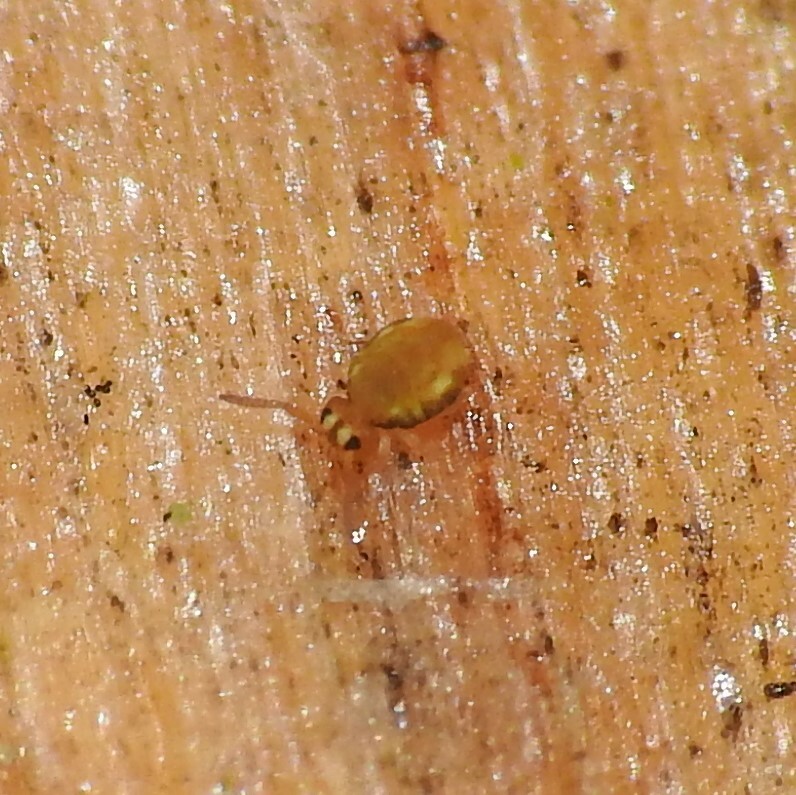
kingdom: Animalia
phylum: Arthropoda
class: Collembola
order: Symphypleona
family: Katiannidae
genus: Sminthurinus
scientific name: Sminthurinus aureus
